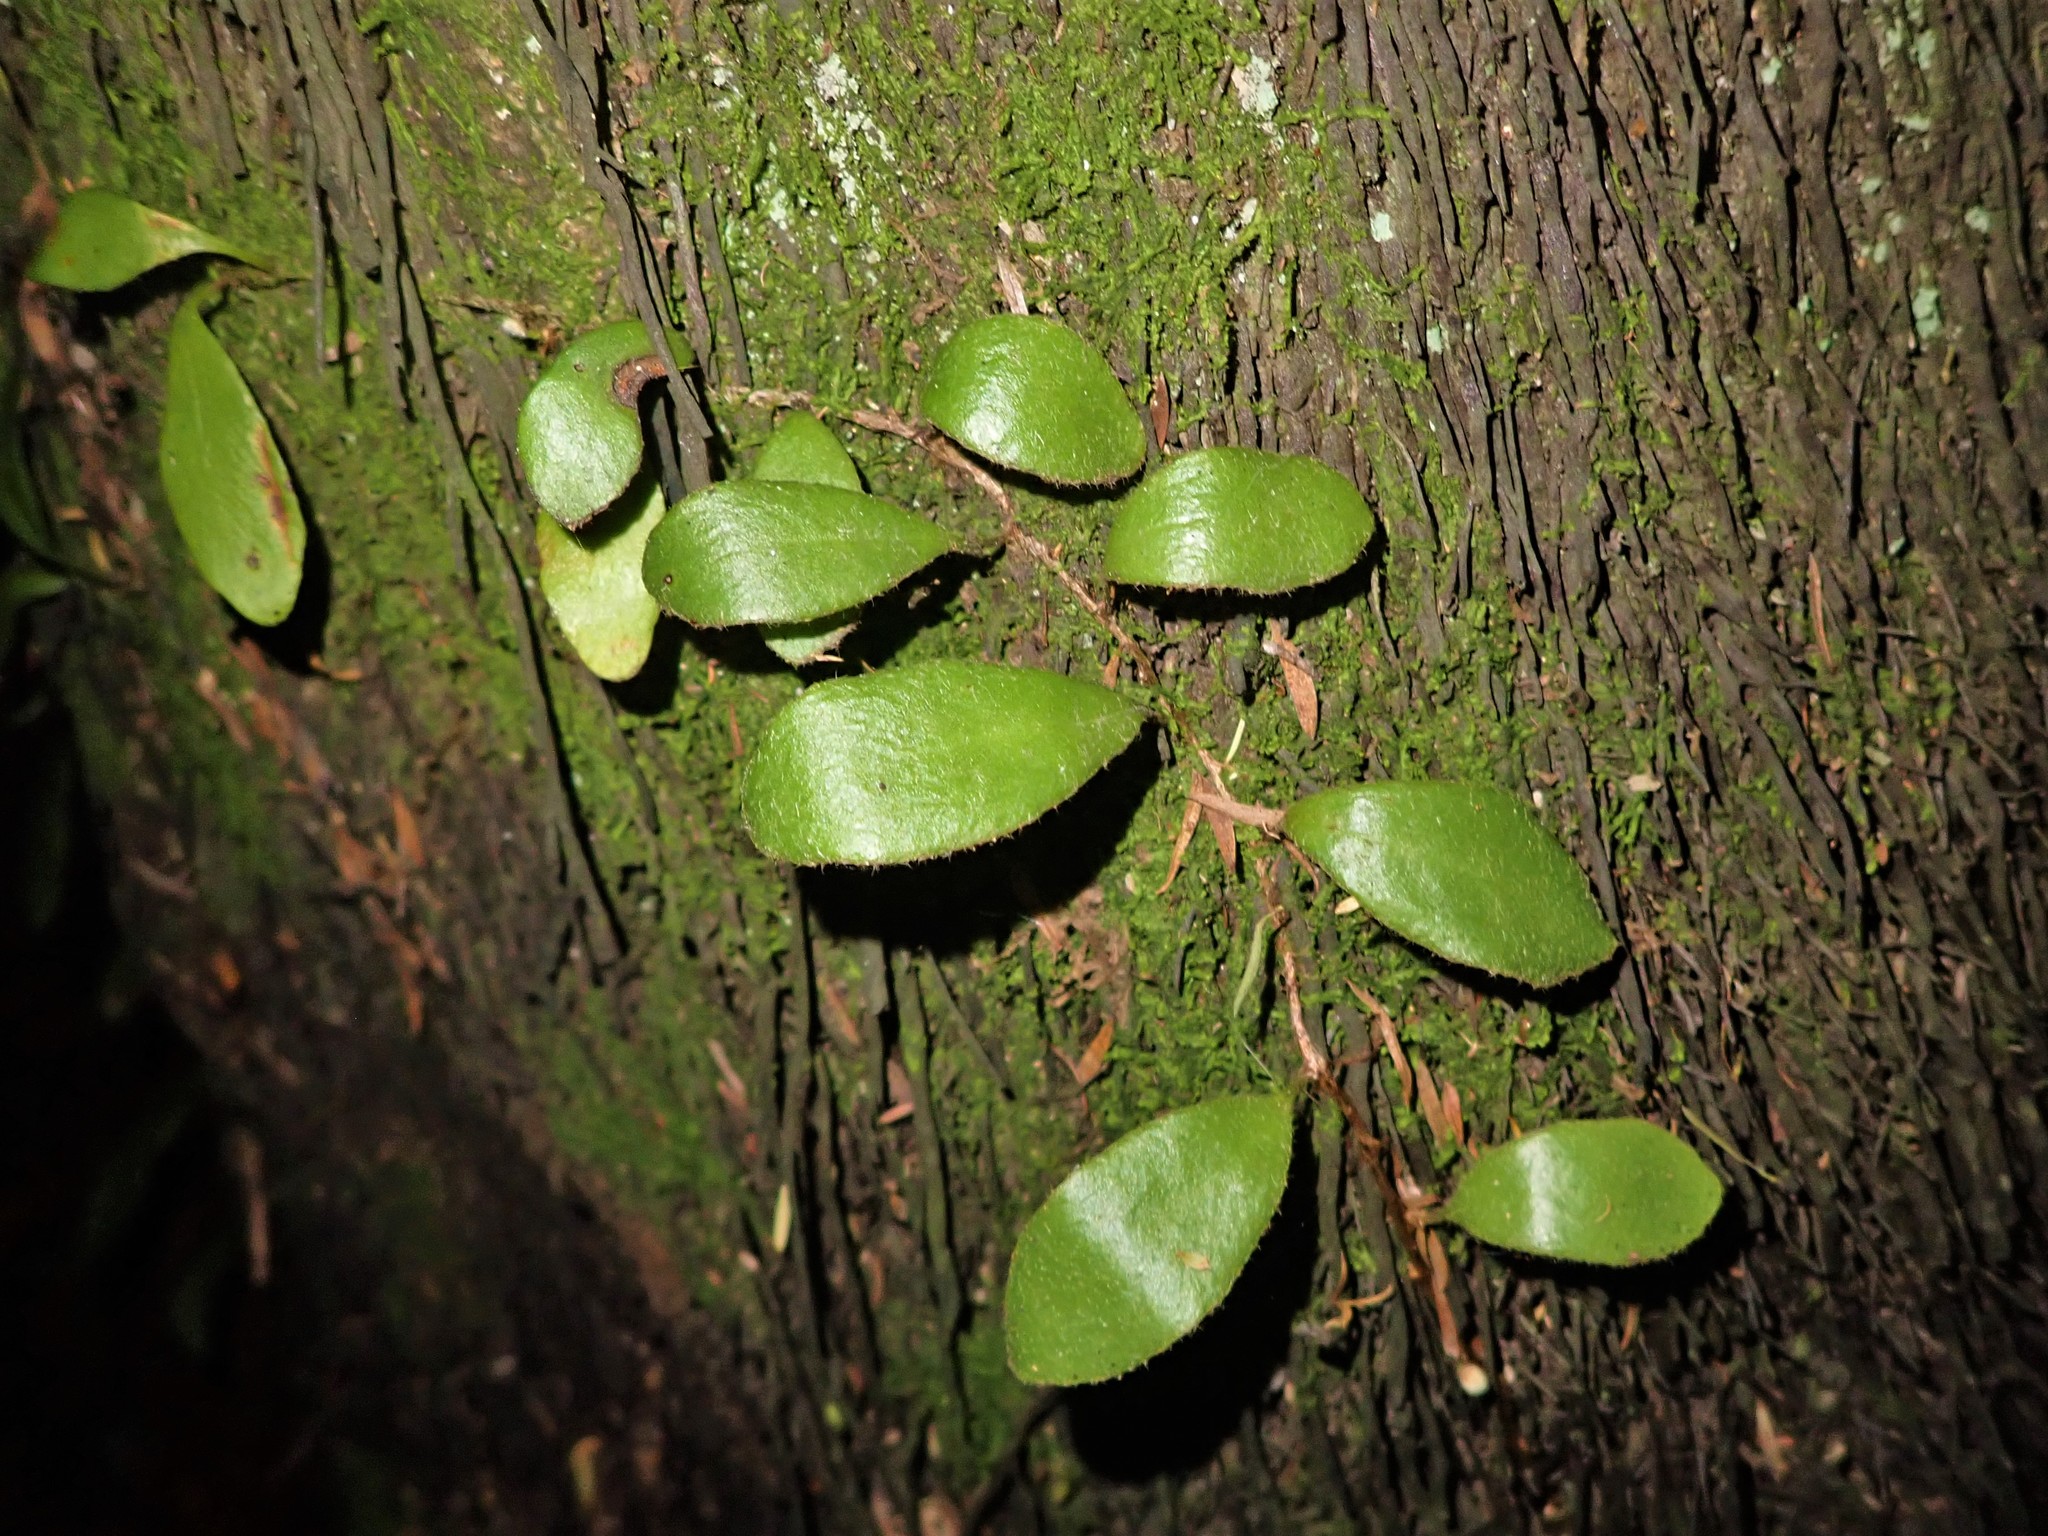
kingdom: Plantae
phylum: Tracheophyta
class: Polypodiopsida
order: Polypodiales
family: Polypodiaceae
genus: Pyrrosia
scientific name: Pyrrosia eleagnifolia
